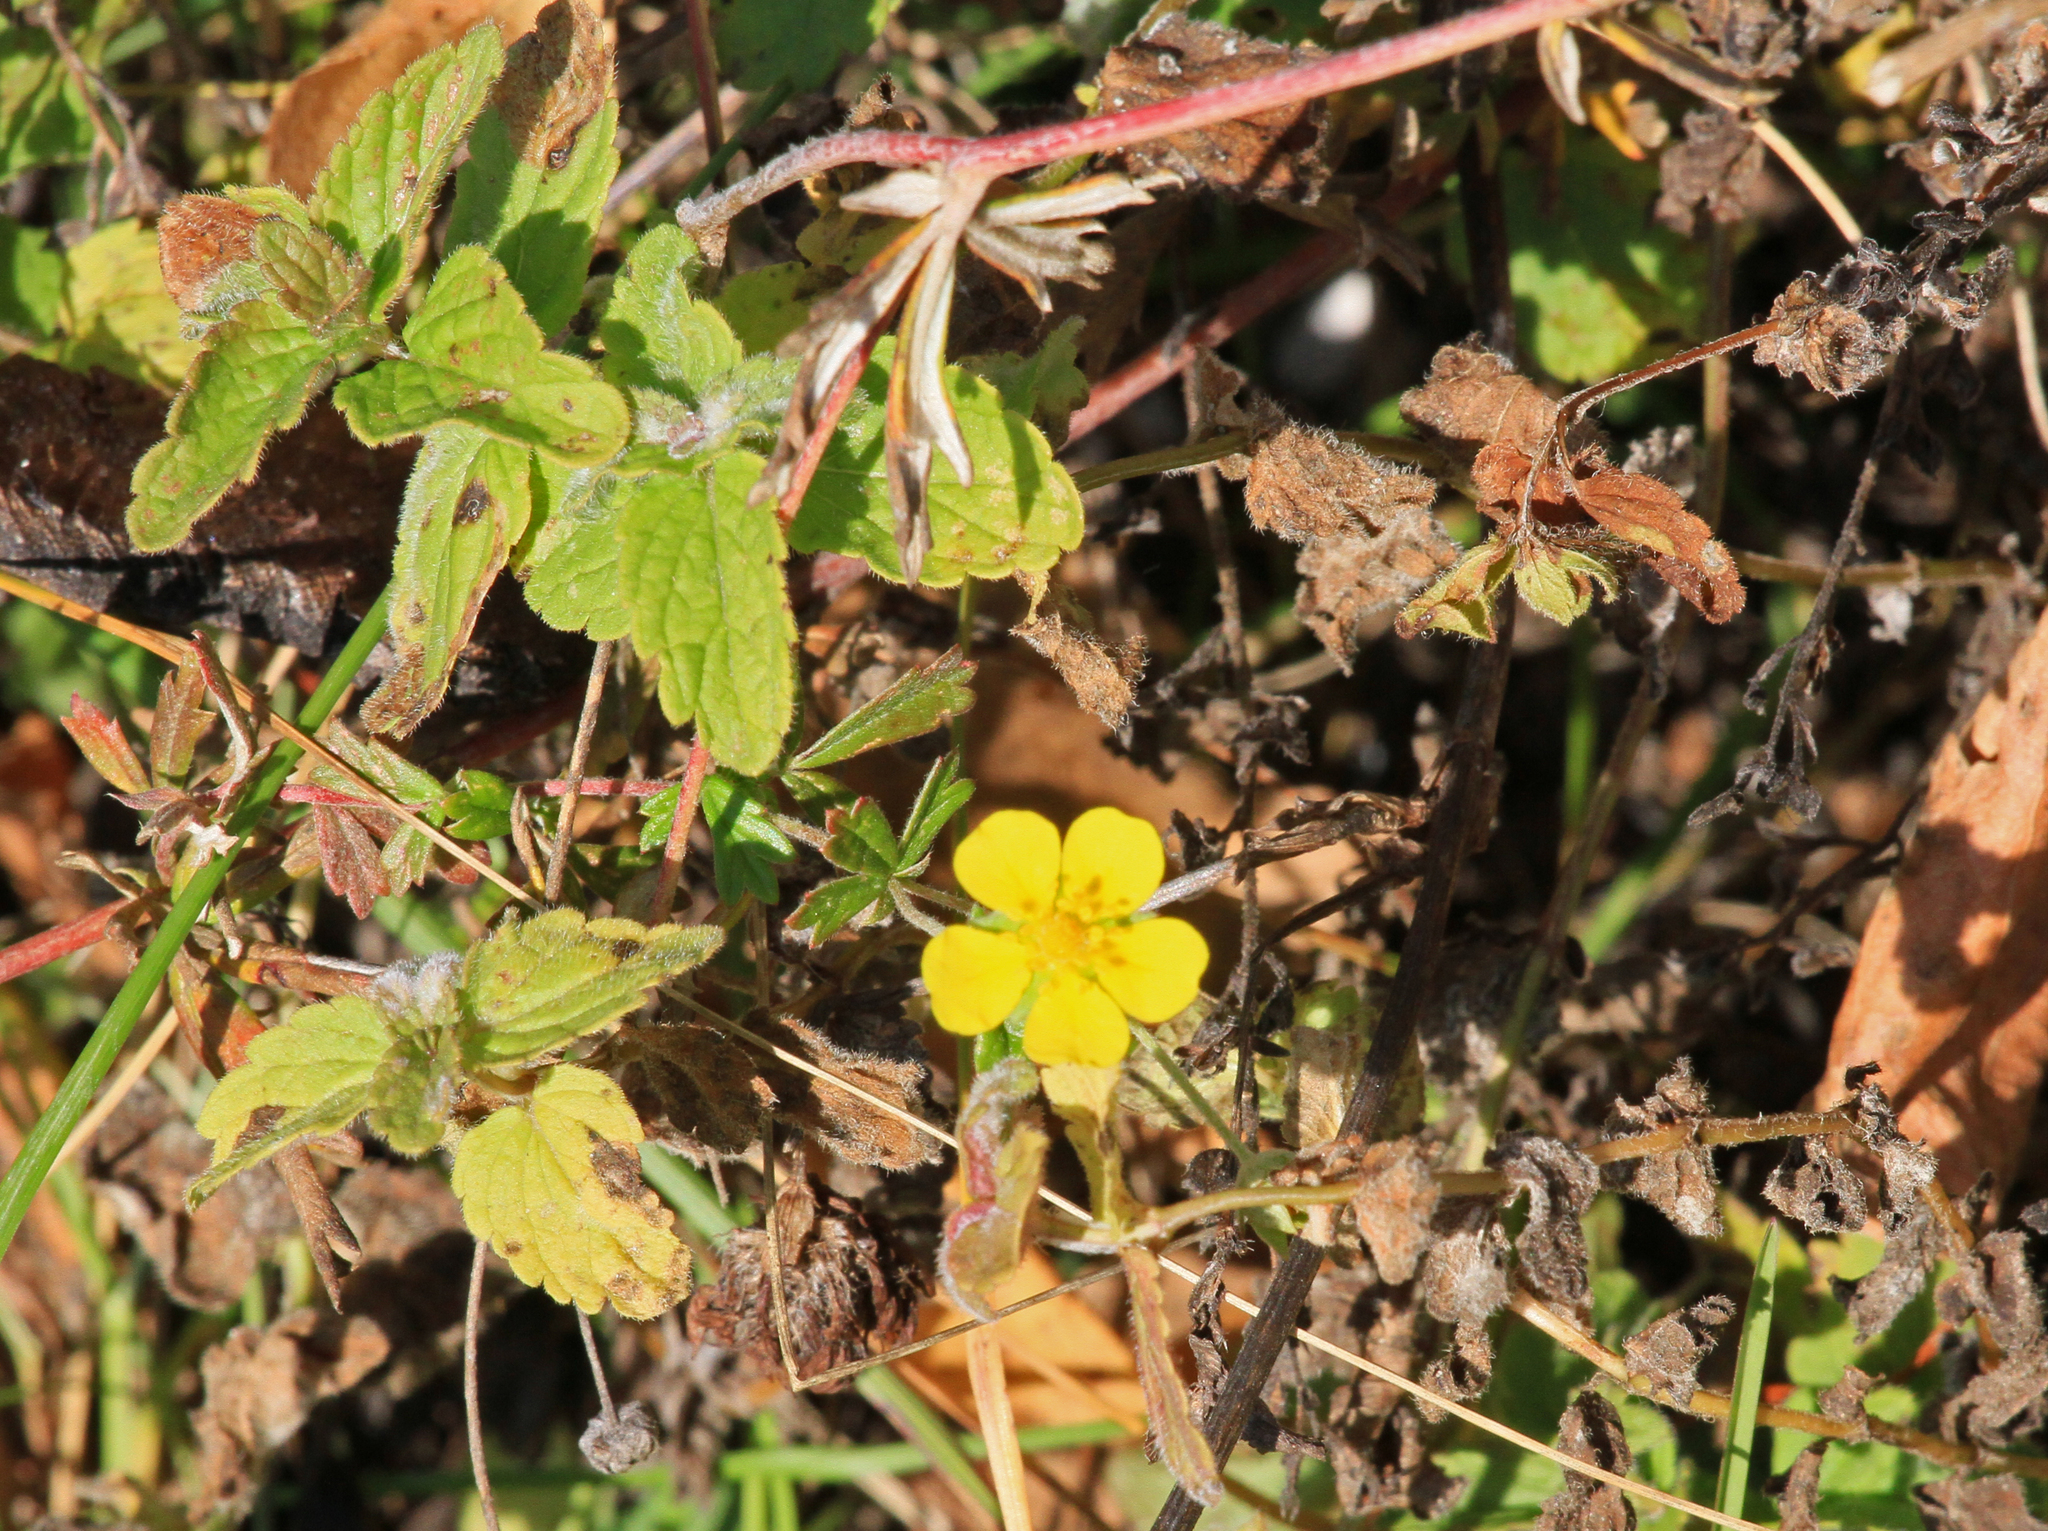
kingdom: Plantae
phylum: Tracheophyta
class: Magnoliopsida
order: Rosales
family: Rosaceae
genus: Potentilla
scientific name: Potentilla argentea
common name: Hoary cinquefoil
